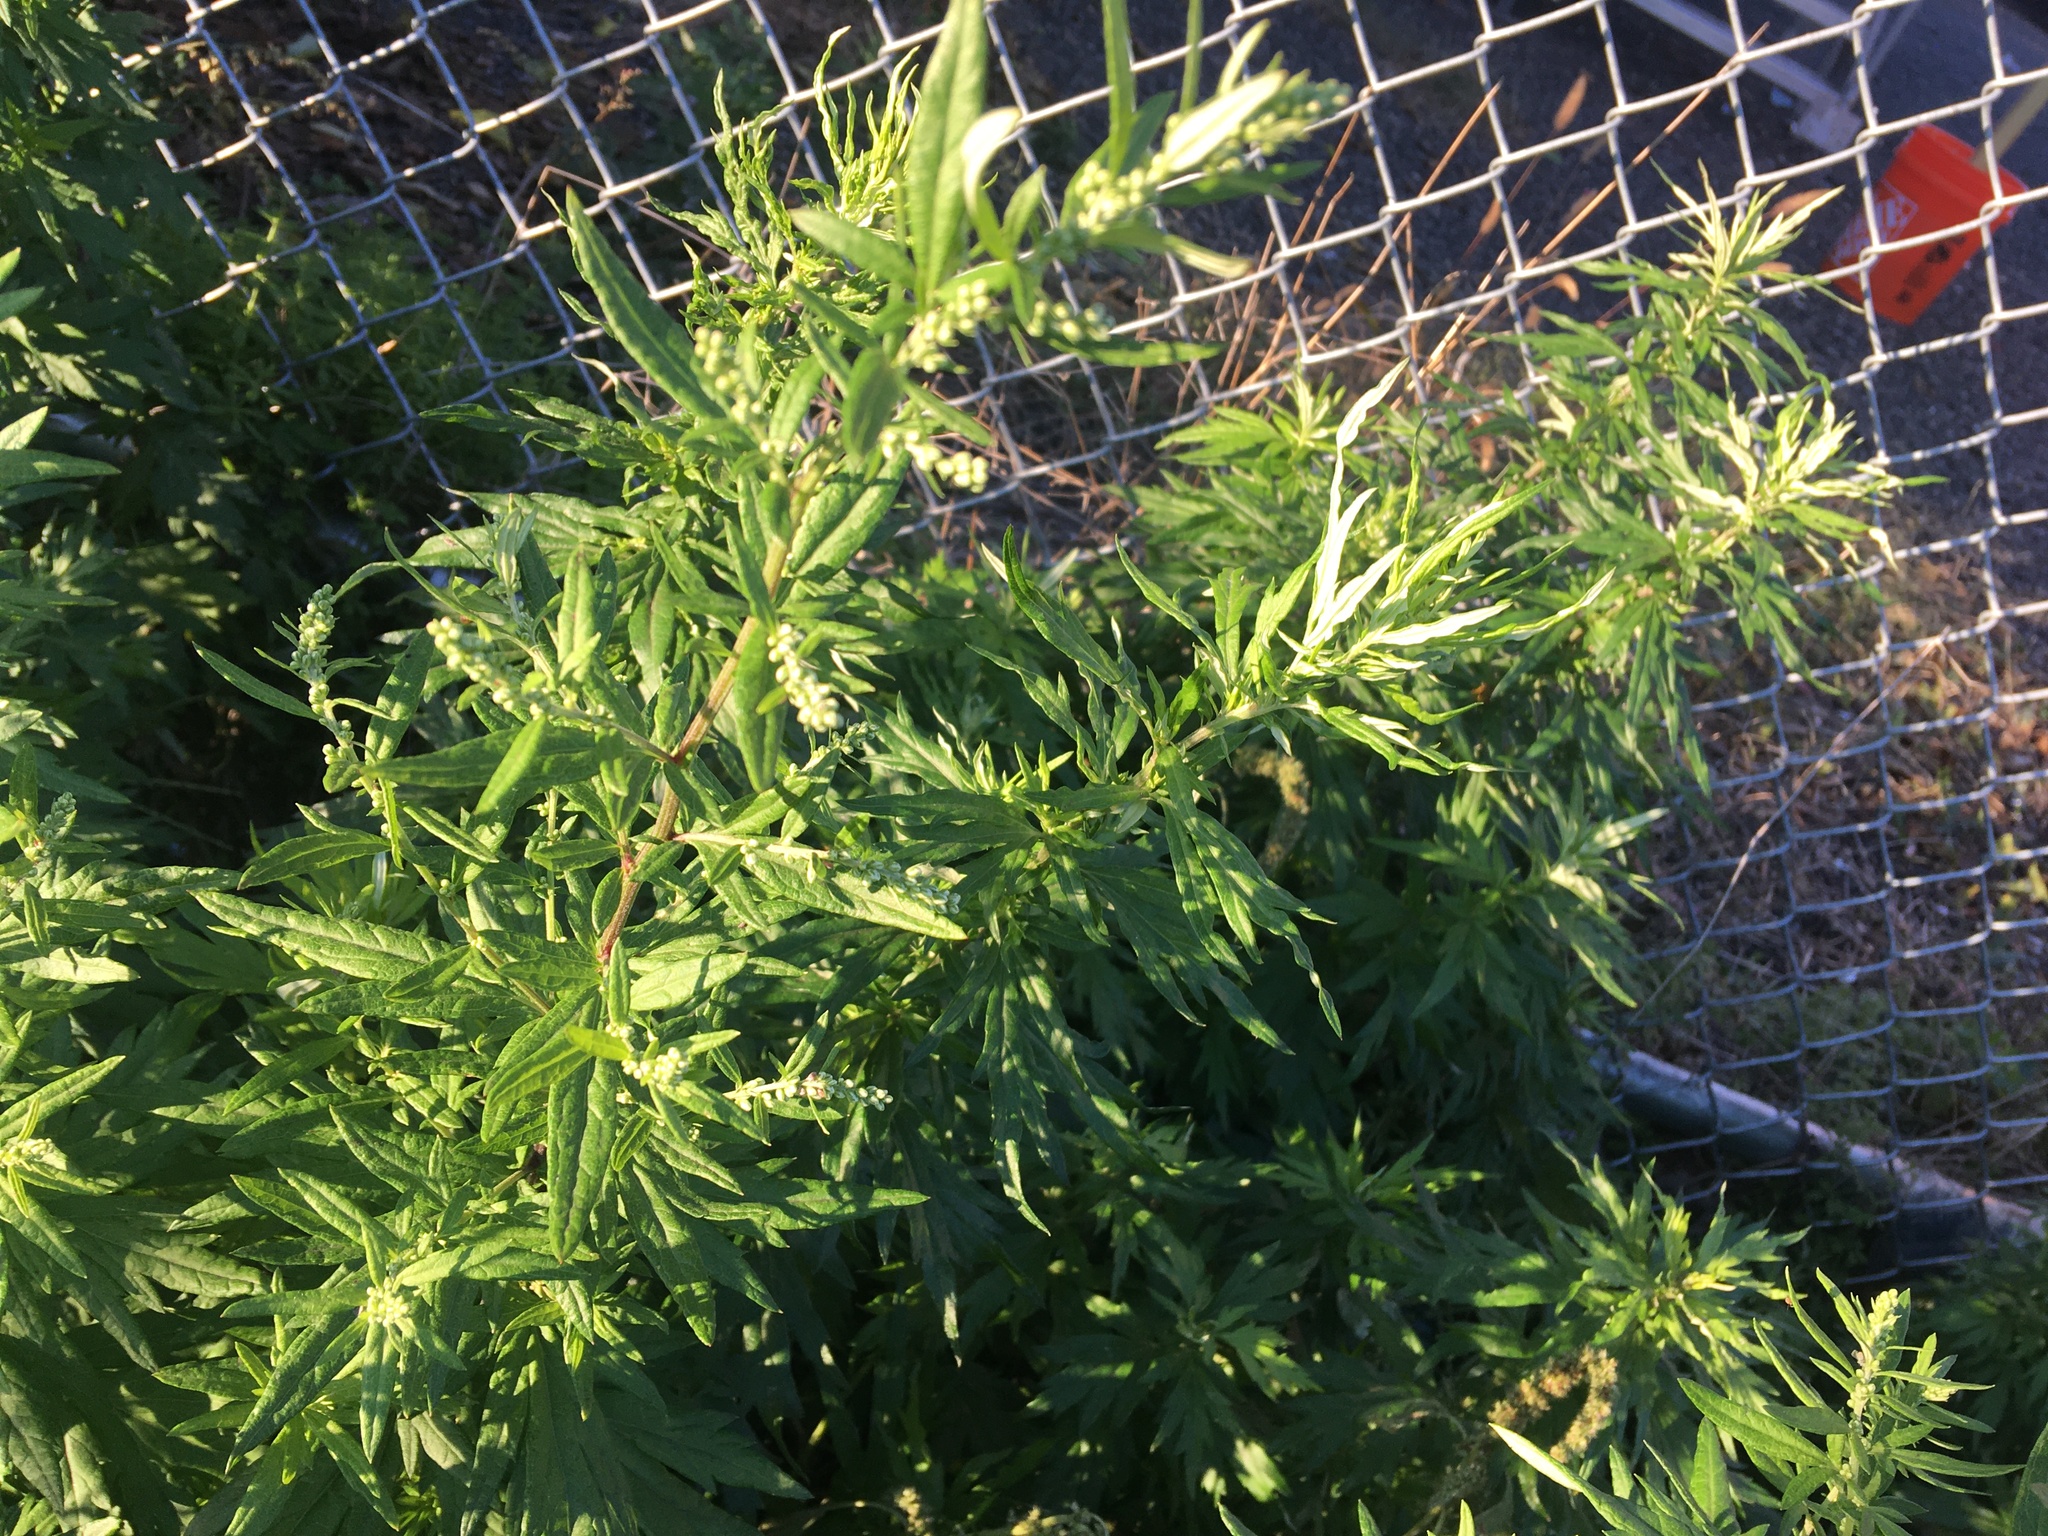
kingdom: Plantae
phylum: Tracheophyta
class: Magnoliopsida
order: Asterales
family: Asteraceae
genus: Artemisia
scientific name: Artemisia vulgaris
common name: Mugwort
